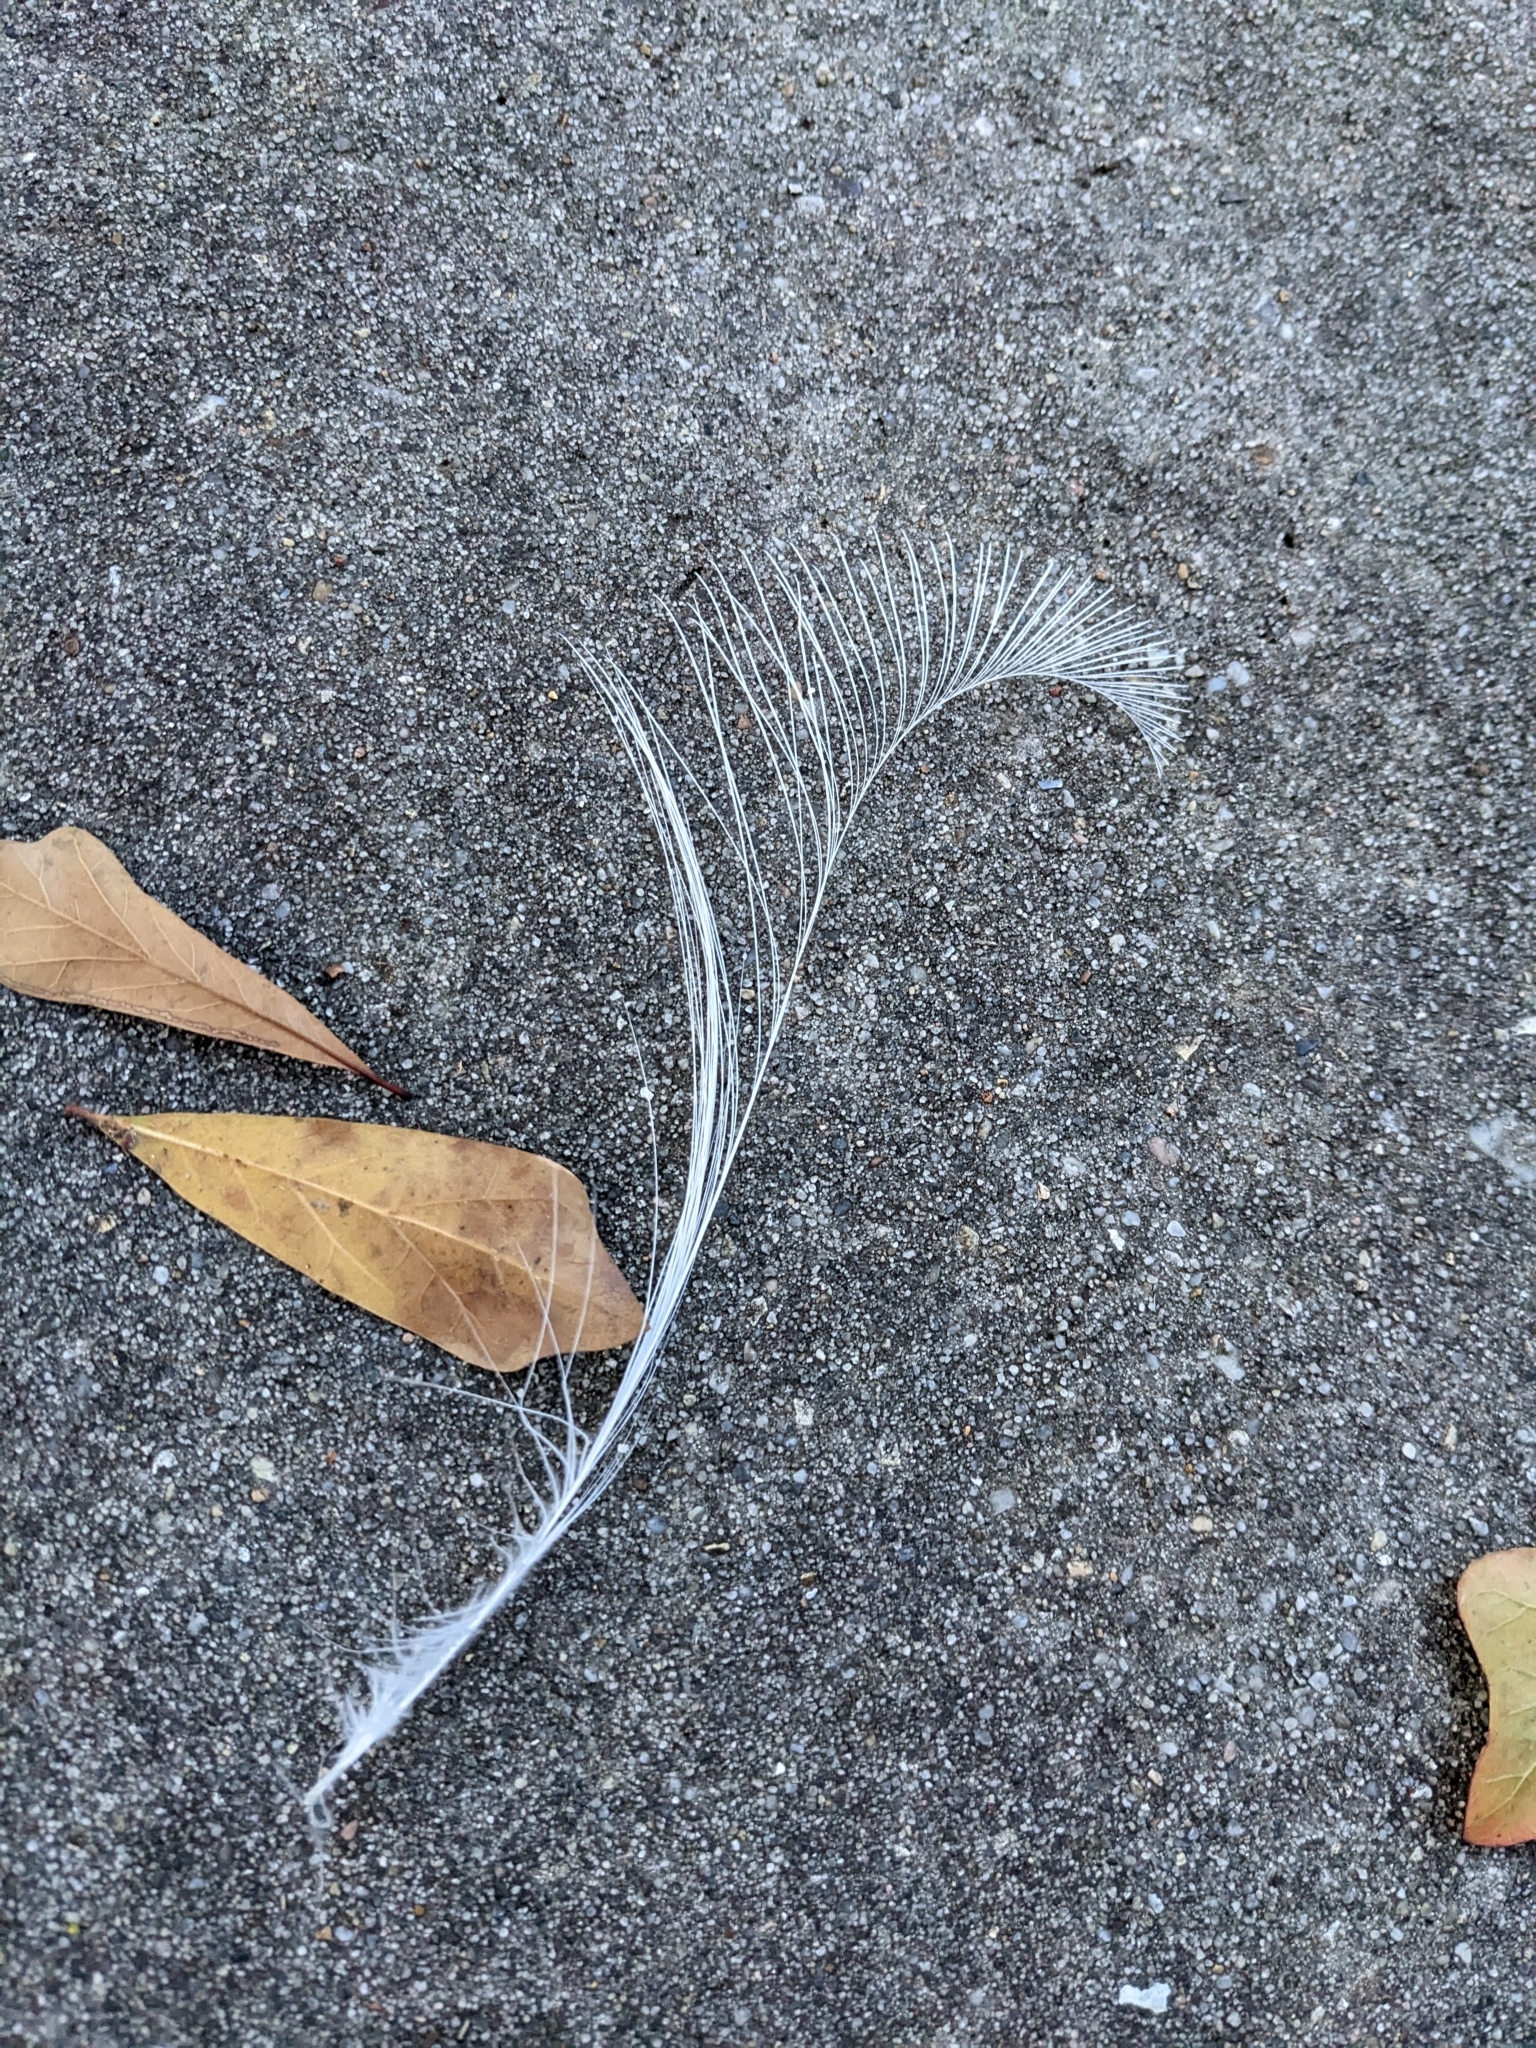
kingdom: Animalia
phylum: Chordata
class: Aves
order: Pelecaniformes
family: Ardeidae
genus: Egretta
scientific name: Egretta thula
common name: Snowy egret
